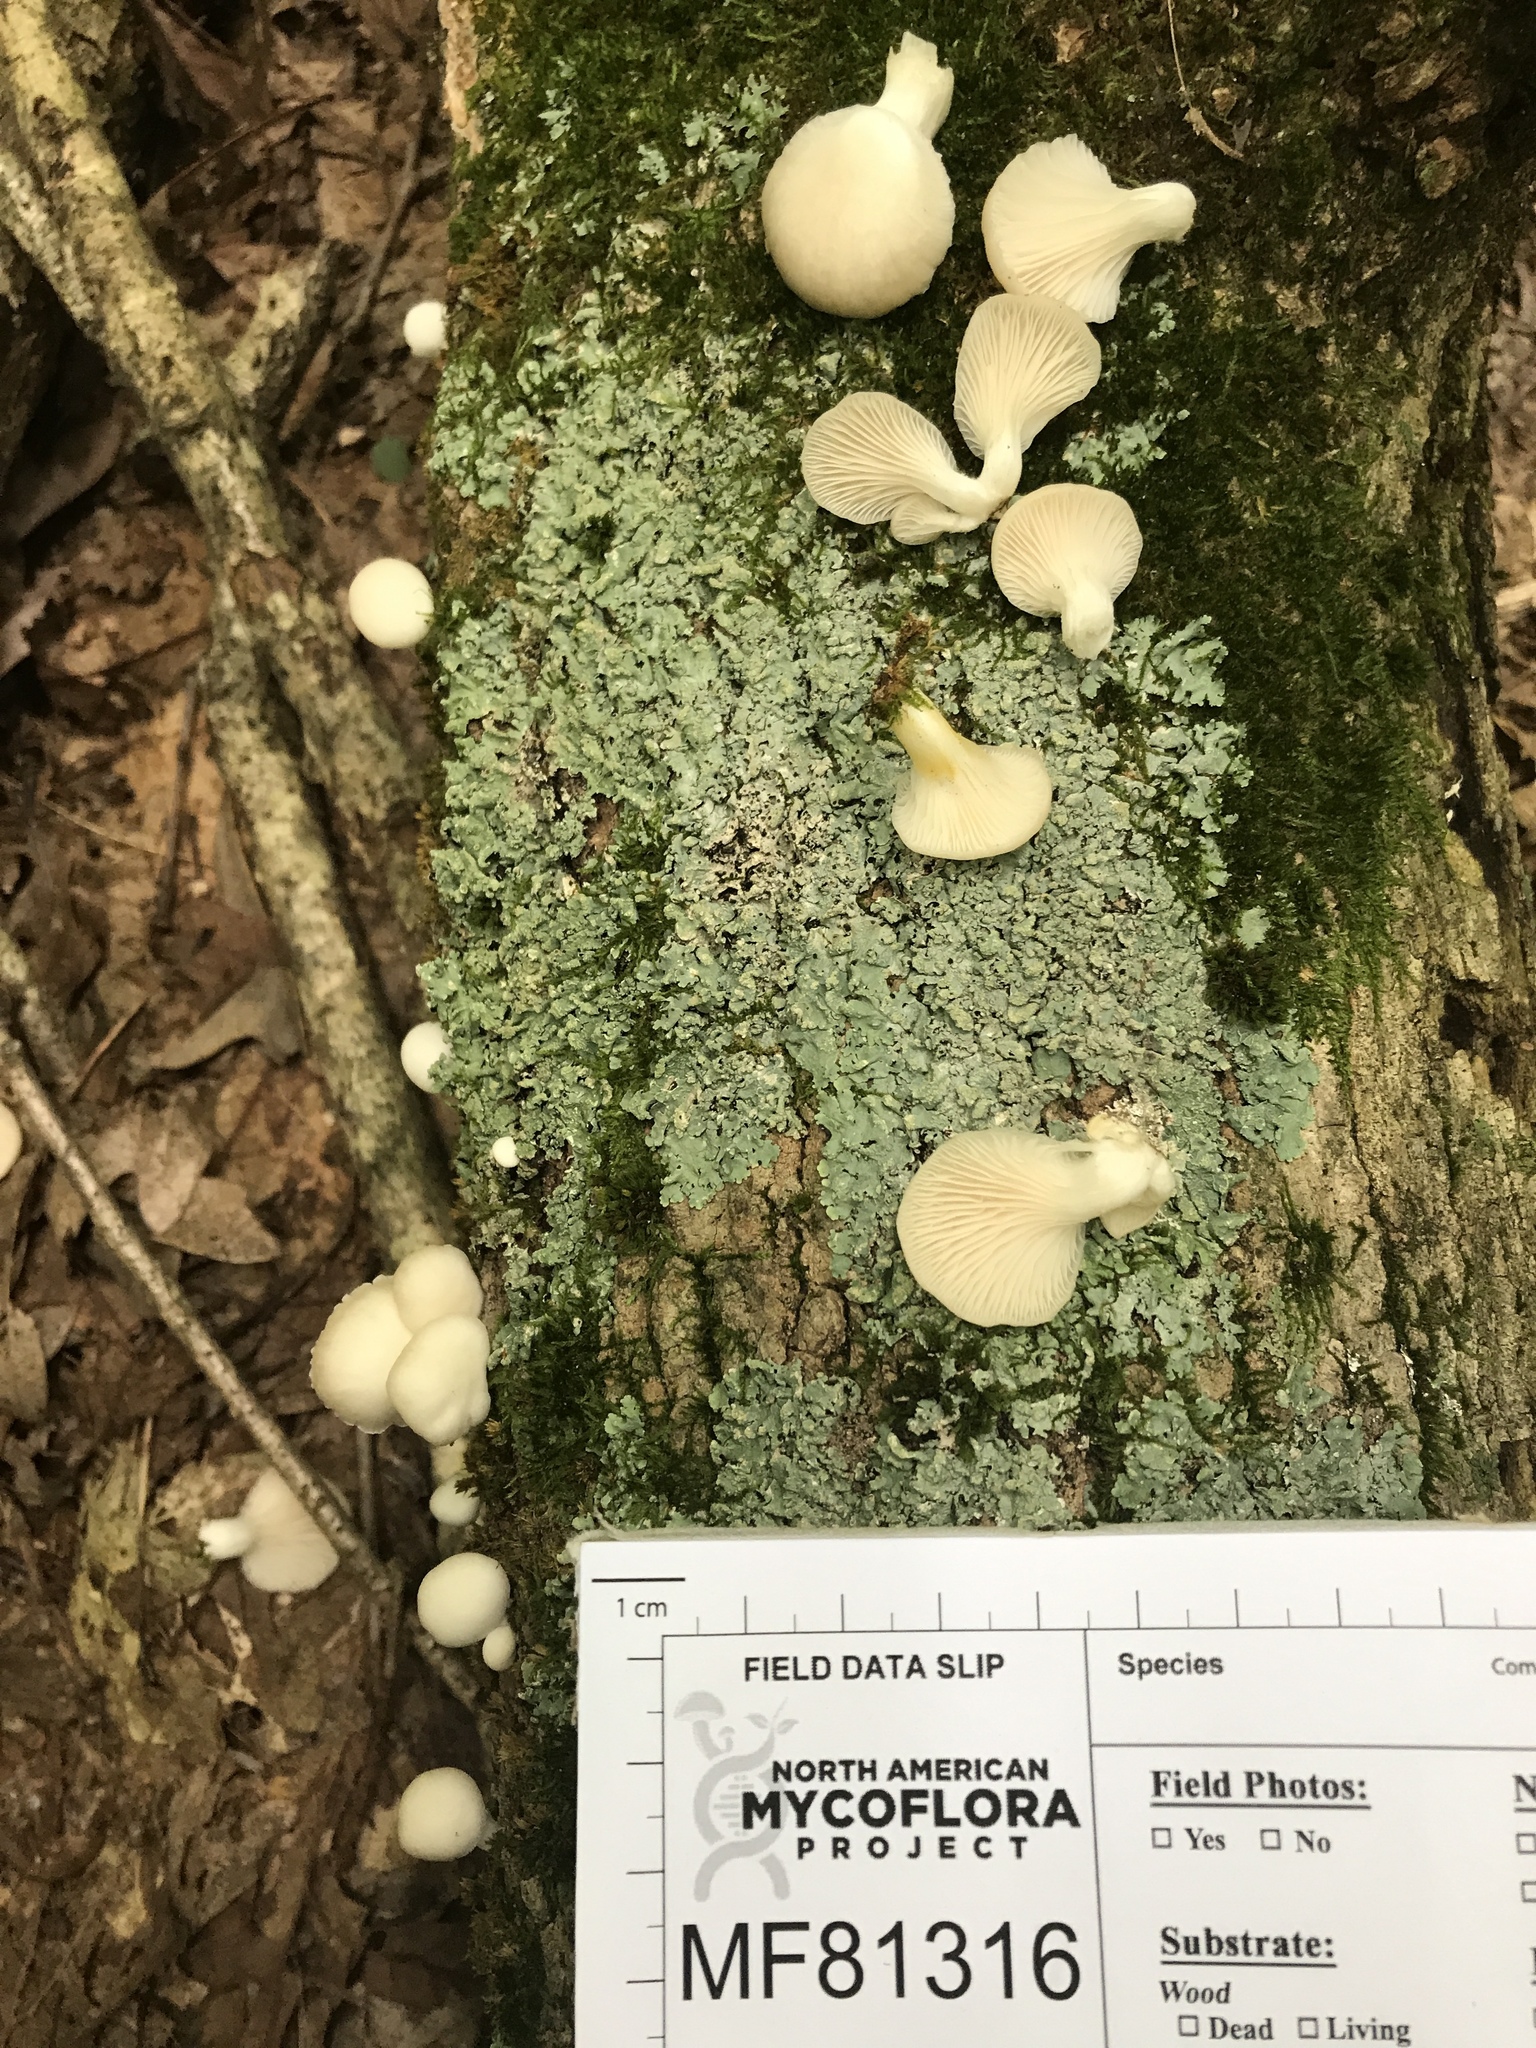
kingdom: Fungi
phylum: Basidiomycota
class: Agaricomycetes
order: Agaricales
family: Pleurotaceae
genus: Pleurotus
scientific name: Pleurotus pulmonarius
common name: Pale oyster
